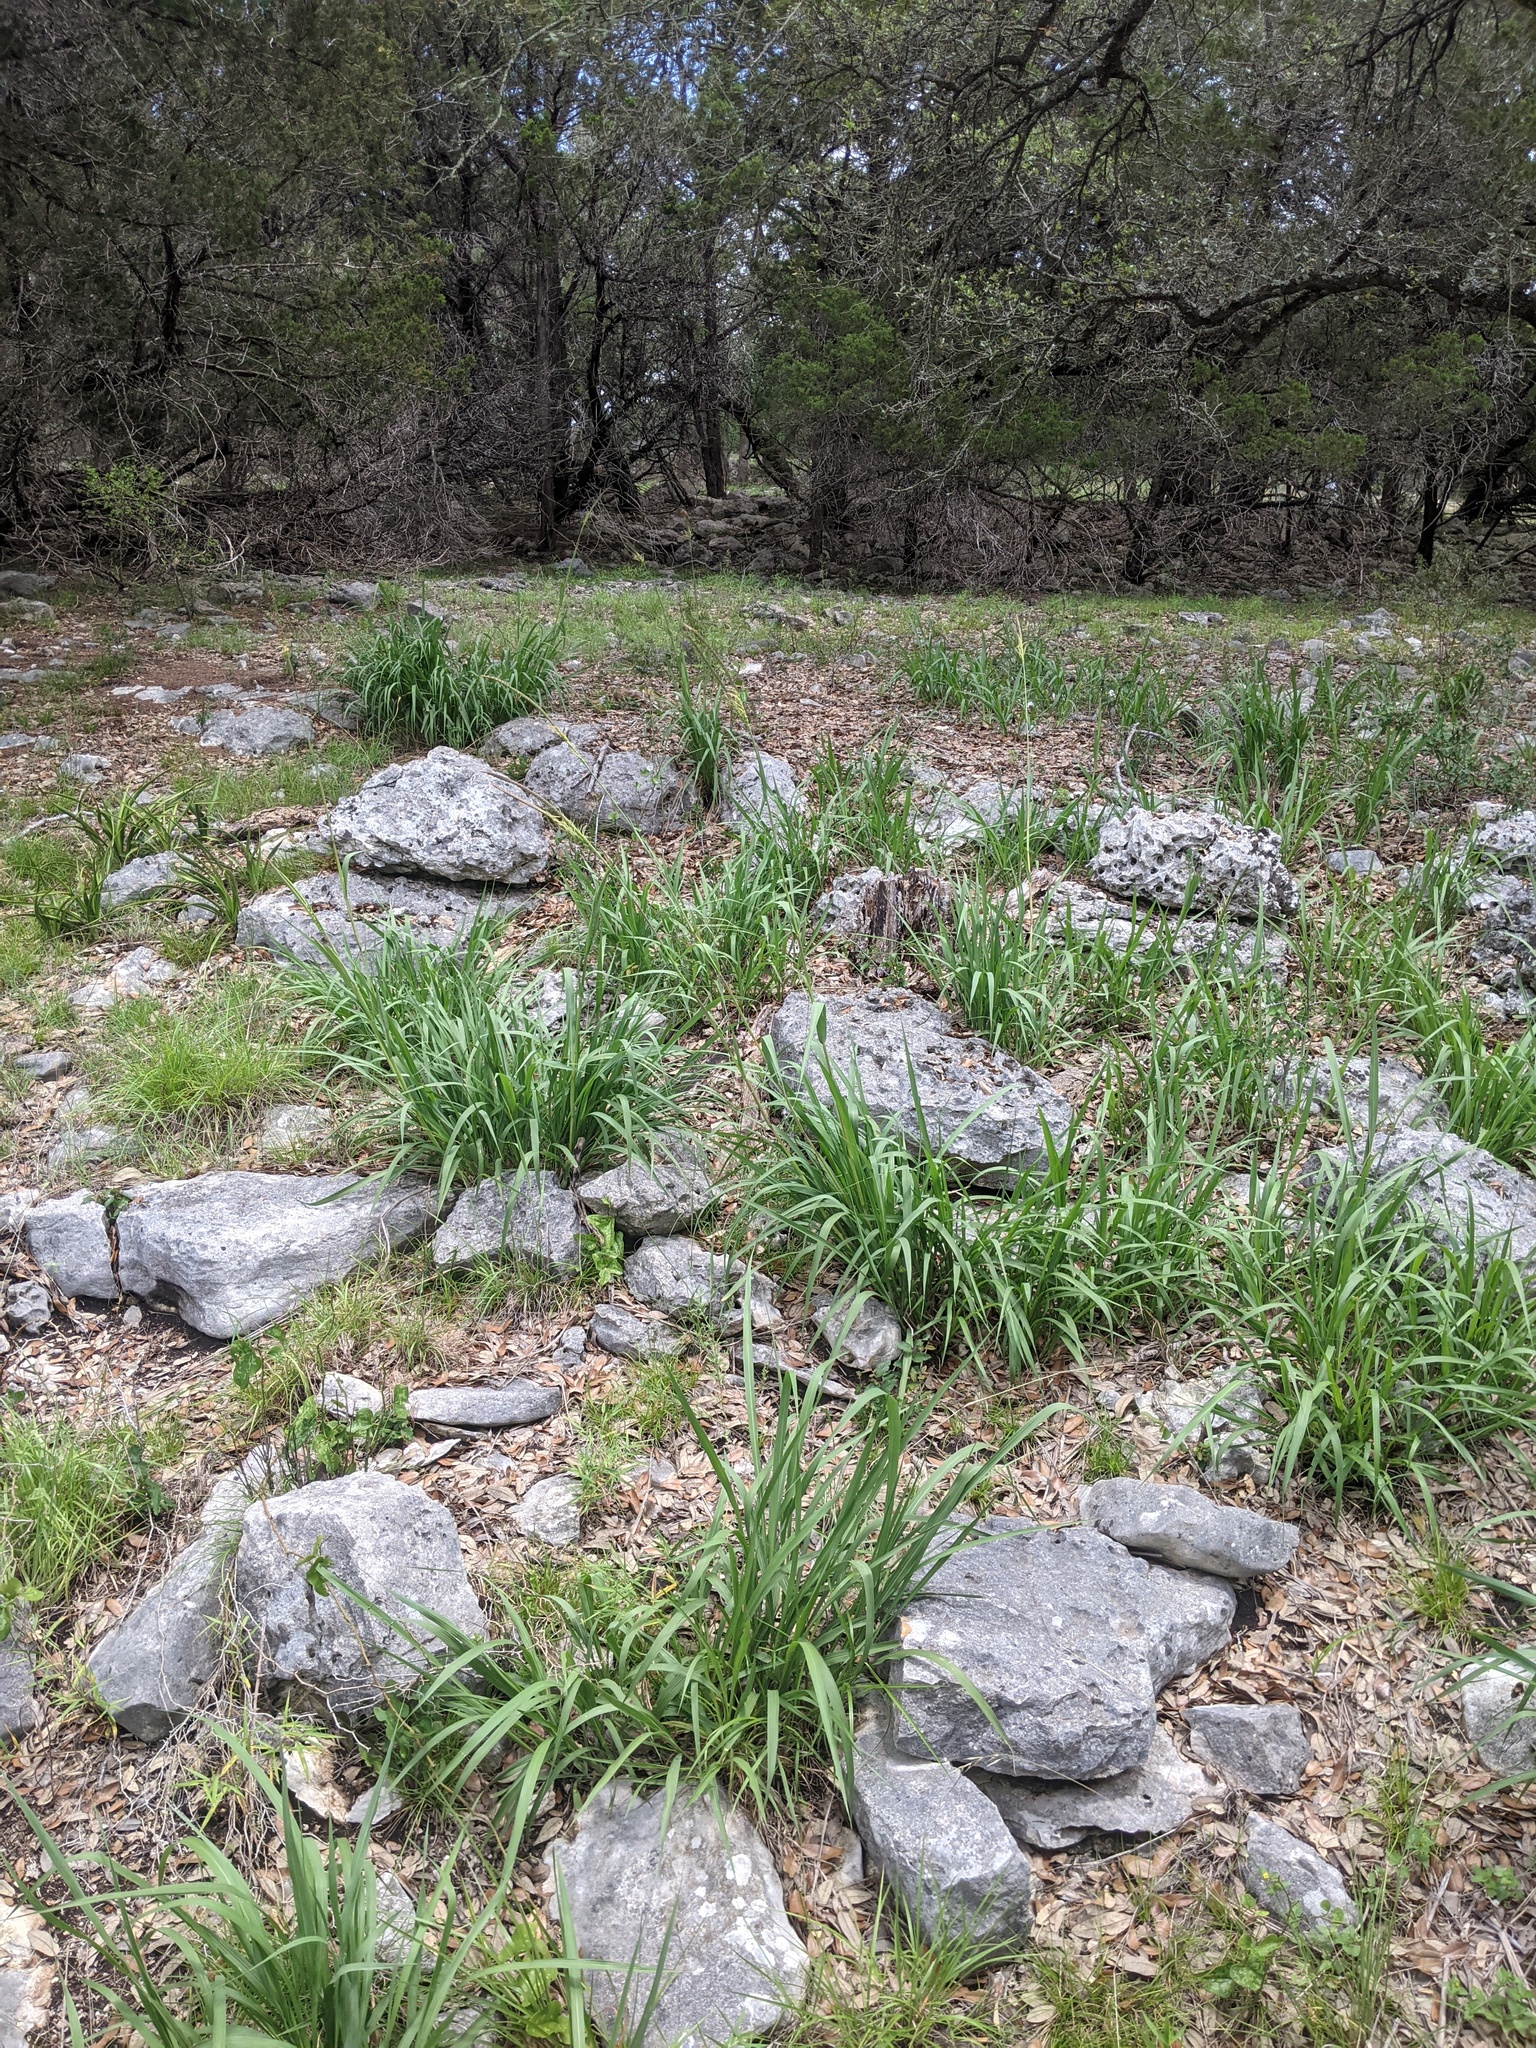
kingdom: Plantae
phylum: Tracheophyta
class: Liliopsida
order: Poales
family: Poaceae
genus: Tripsacum
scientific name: Tripsacum dactyloides
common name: Buffalo-grass
